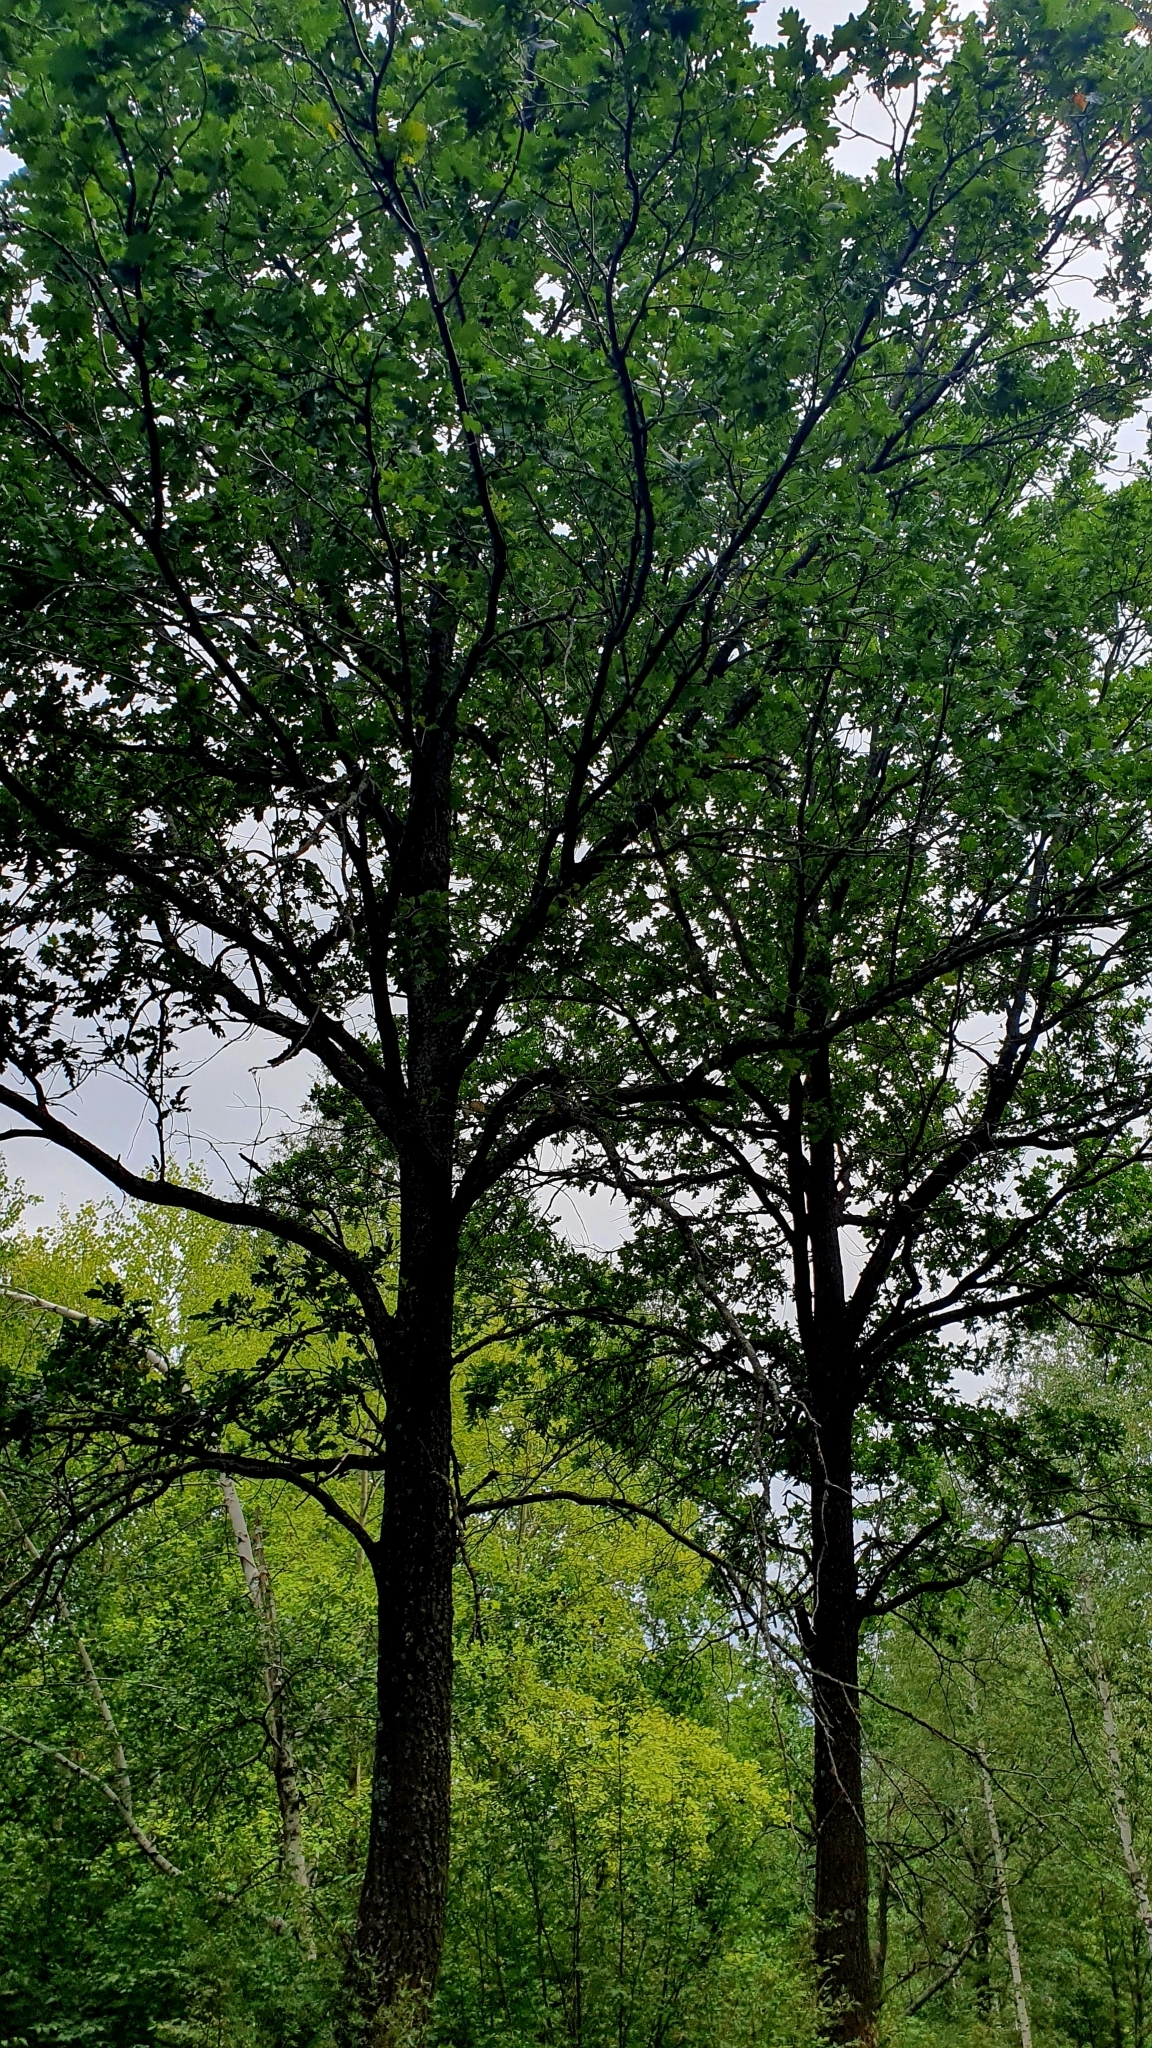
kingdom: Plantae
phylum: Tracheophyta
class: Magnoliopsida
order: Fagales
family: Fagaceae
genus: Quercus
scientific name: Quercus robur
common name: Pedunculate oak
